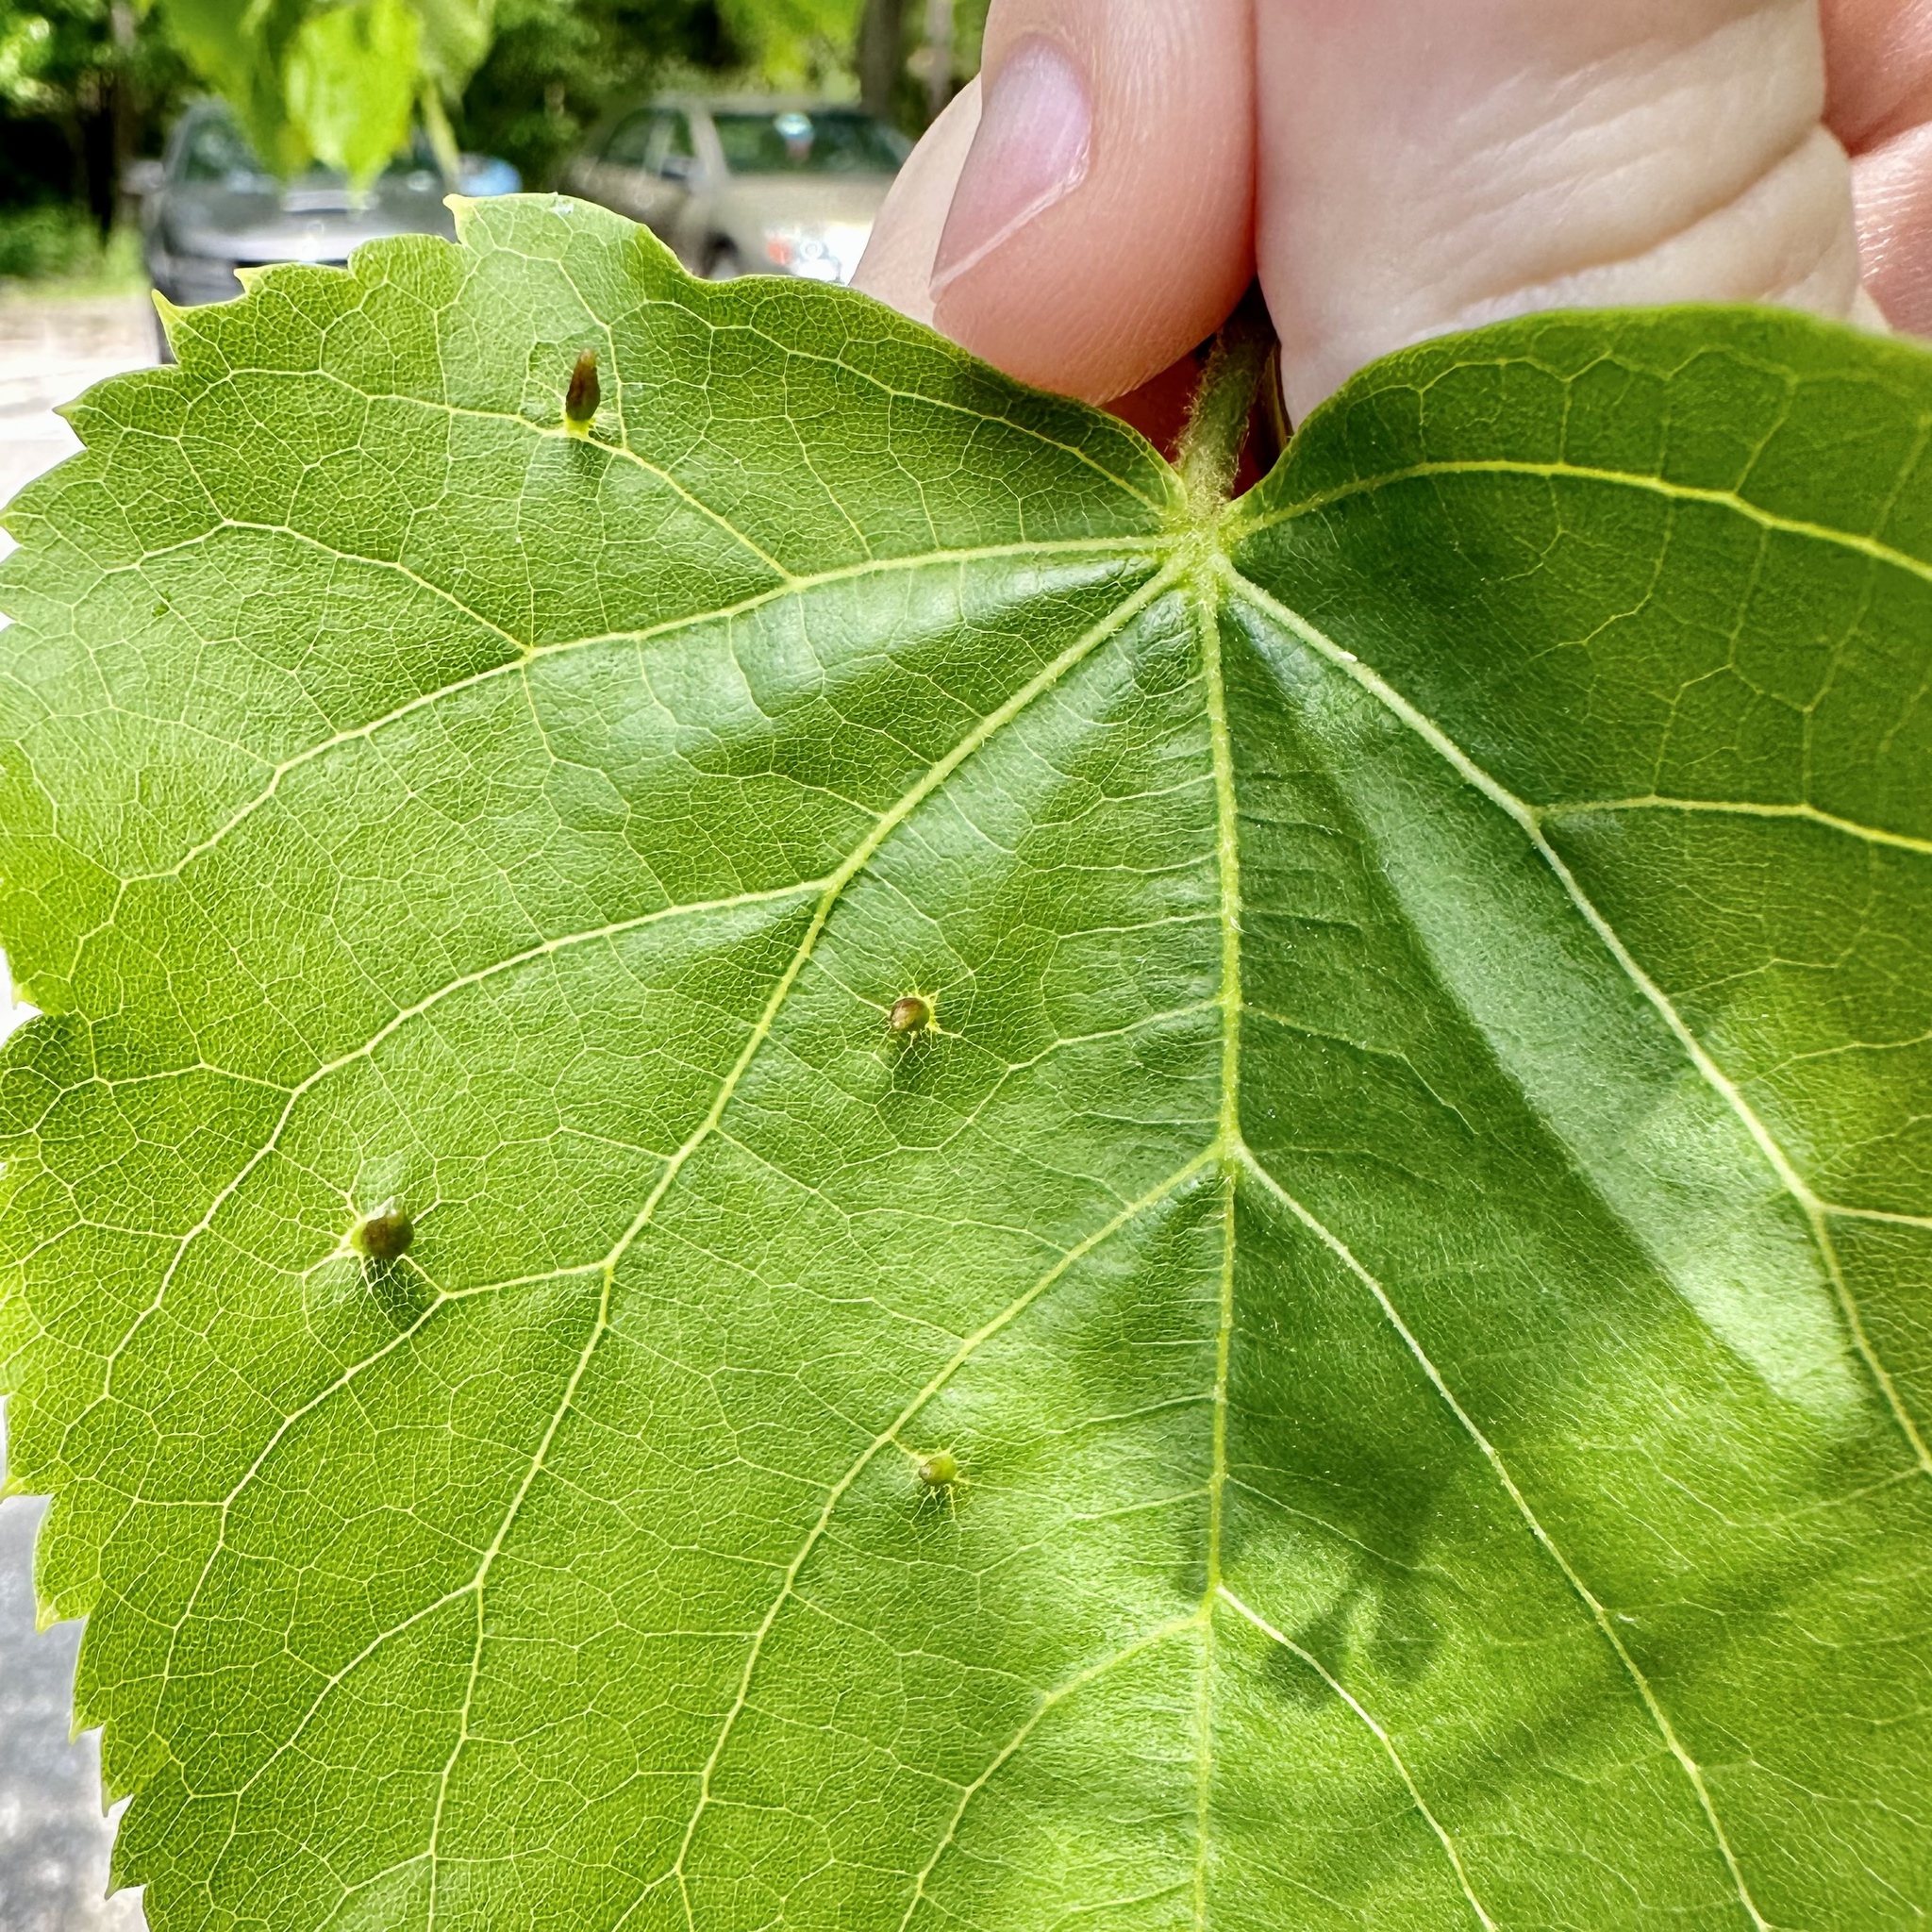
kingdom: Animalia
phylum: Arthropoda
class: Arachnida
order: Trombidiformes
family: Eriophyidae
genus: Eriophyes
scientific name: Eriophyes tiliae
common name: Red nail gall mite
